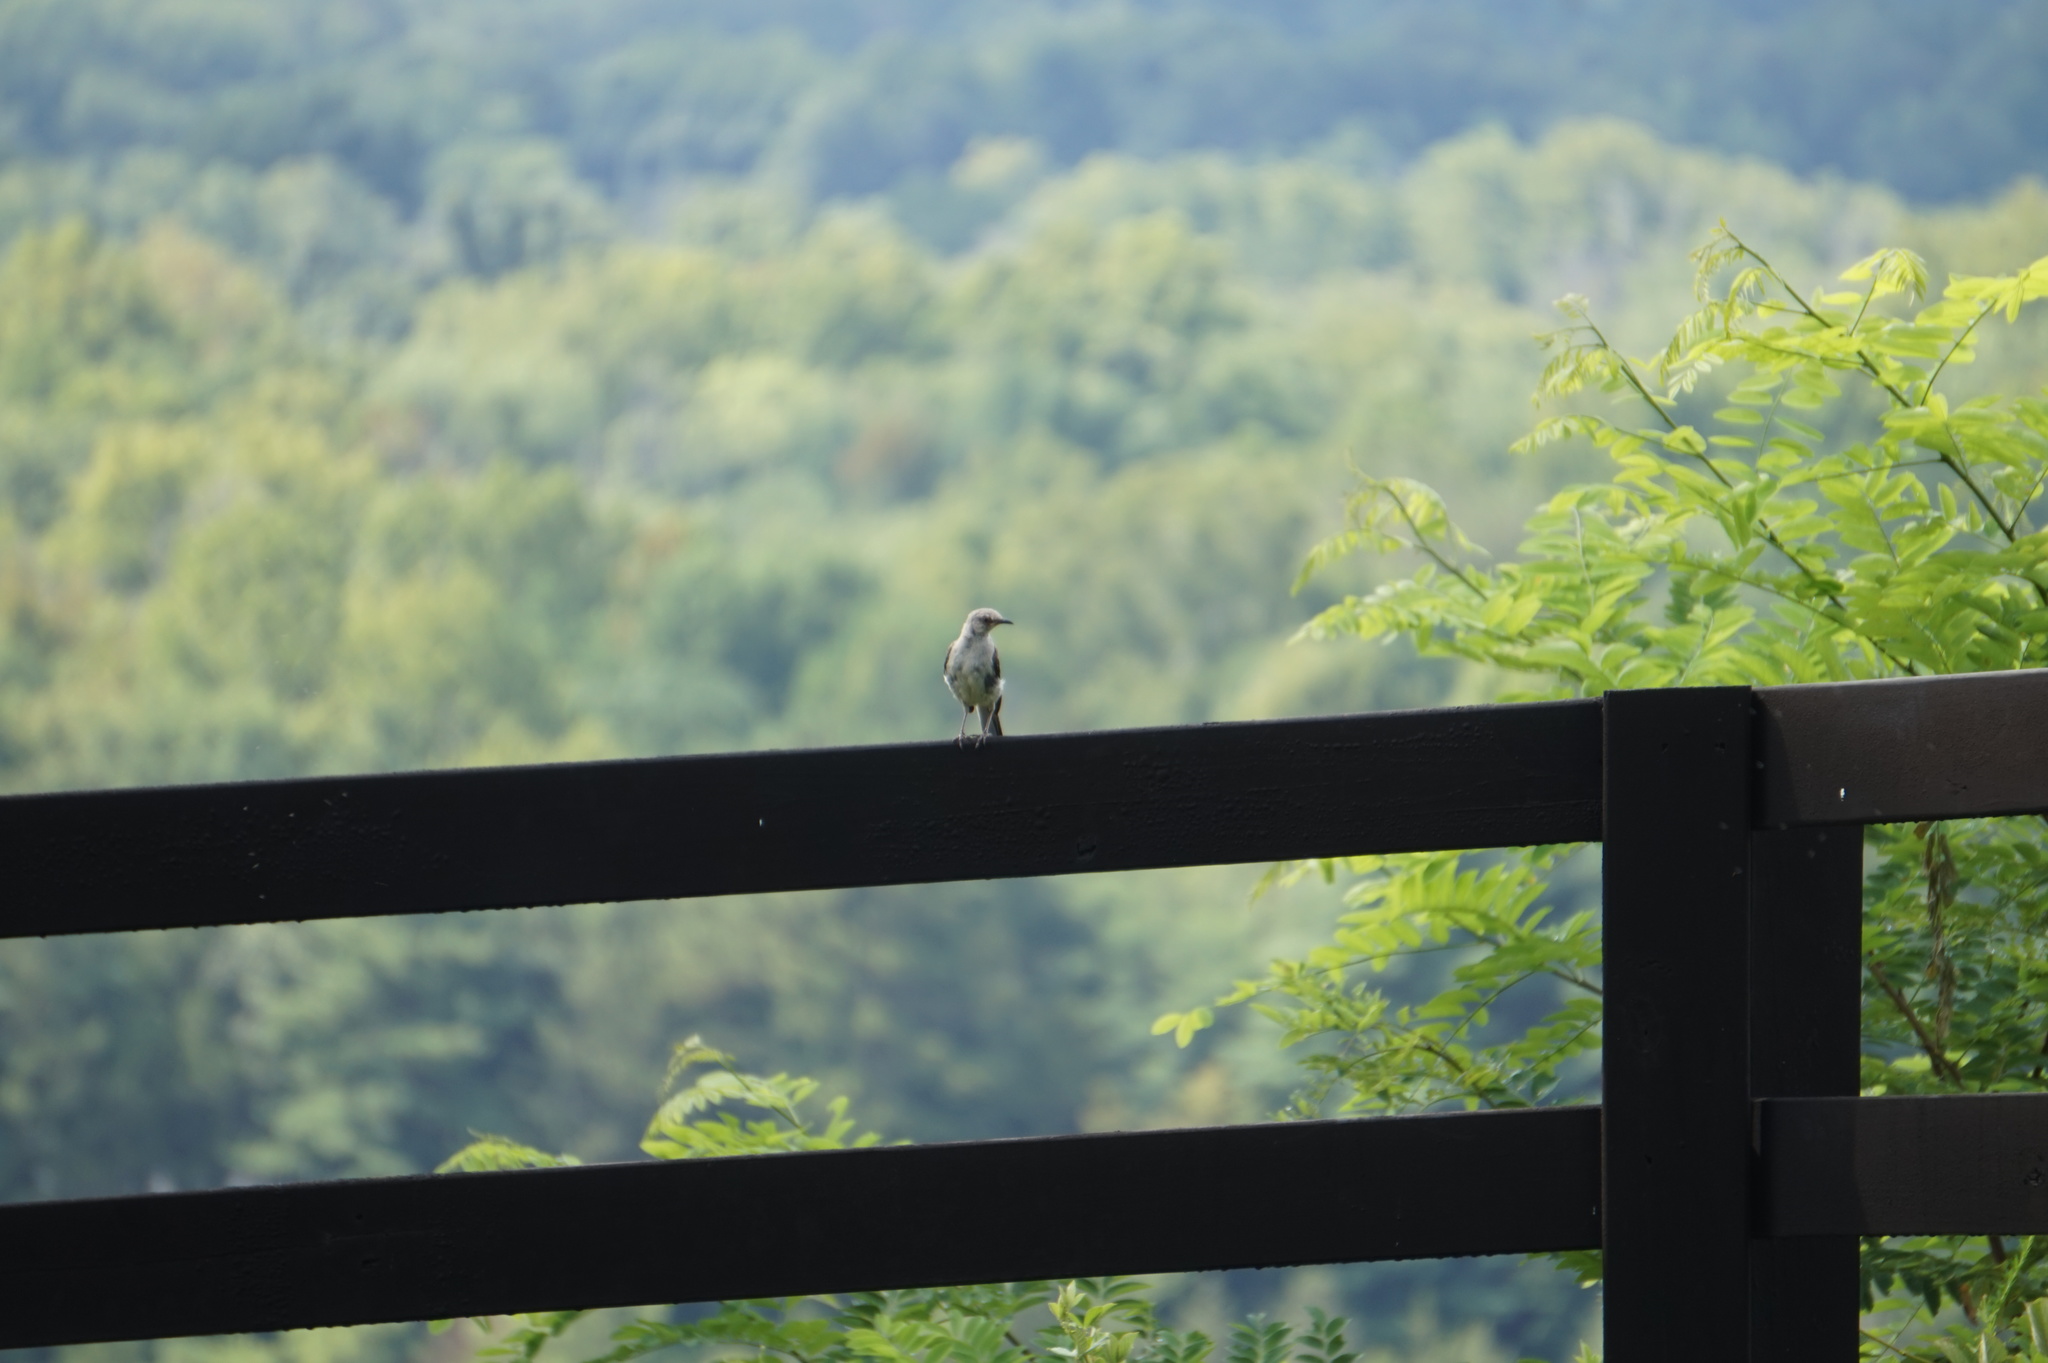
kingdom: Animalia
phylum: Chordata
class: Aves
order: Passeriformes
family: Mimidae
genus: Mimus
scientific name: Mimus polyglottos
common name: Northern mockingbird
